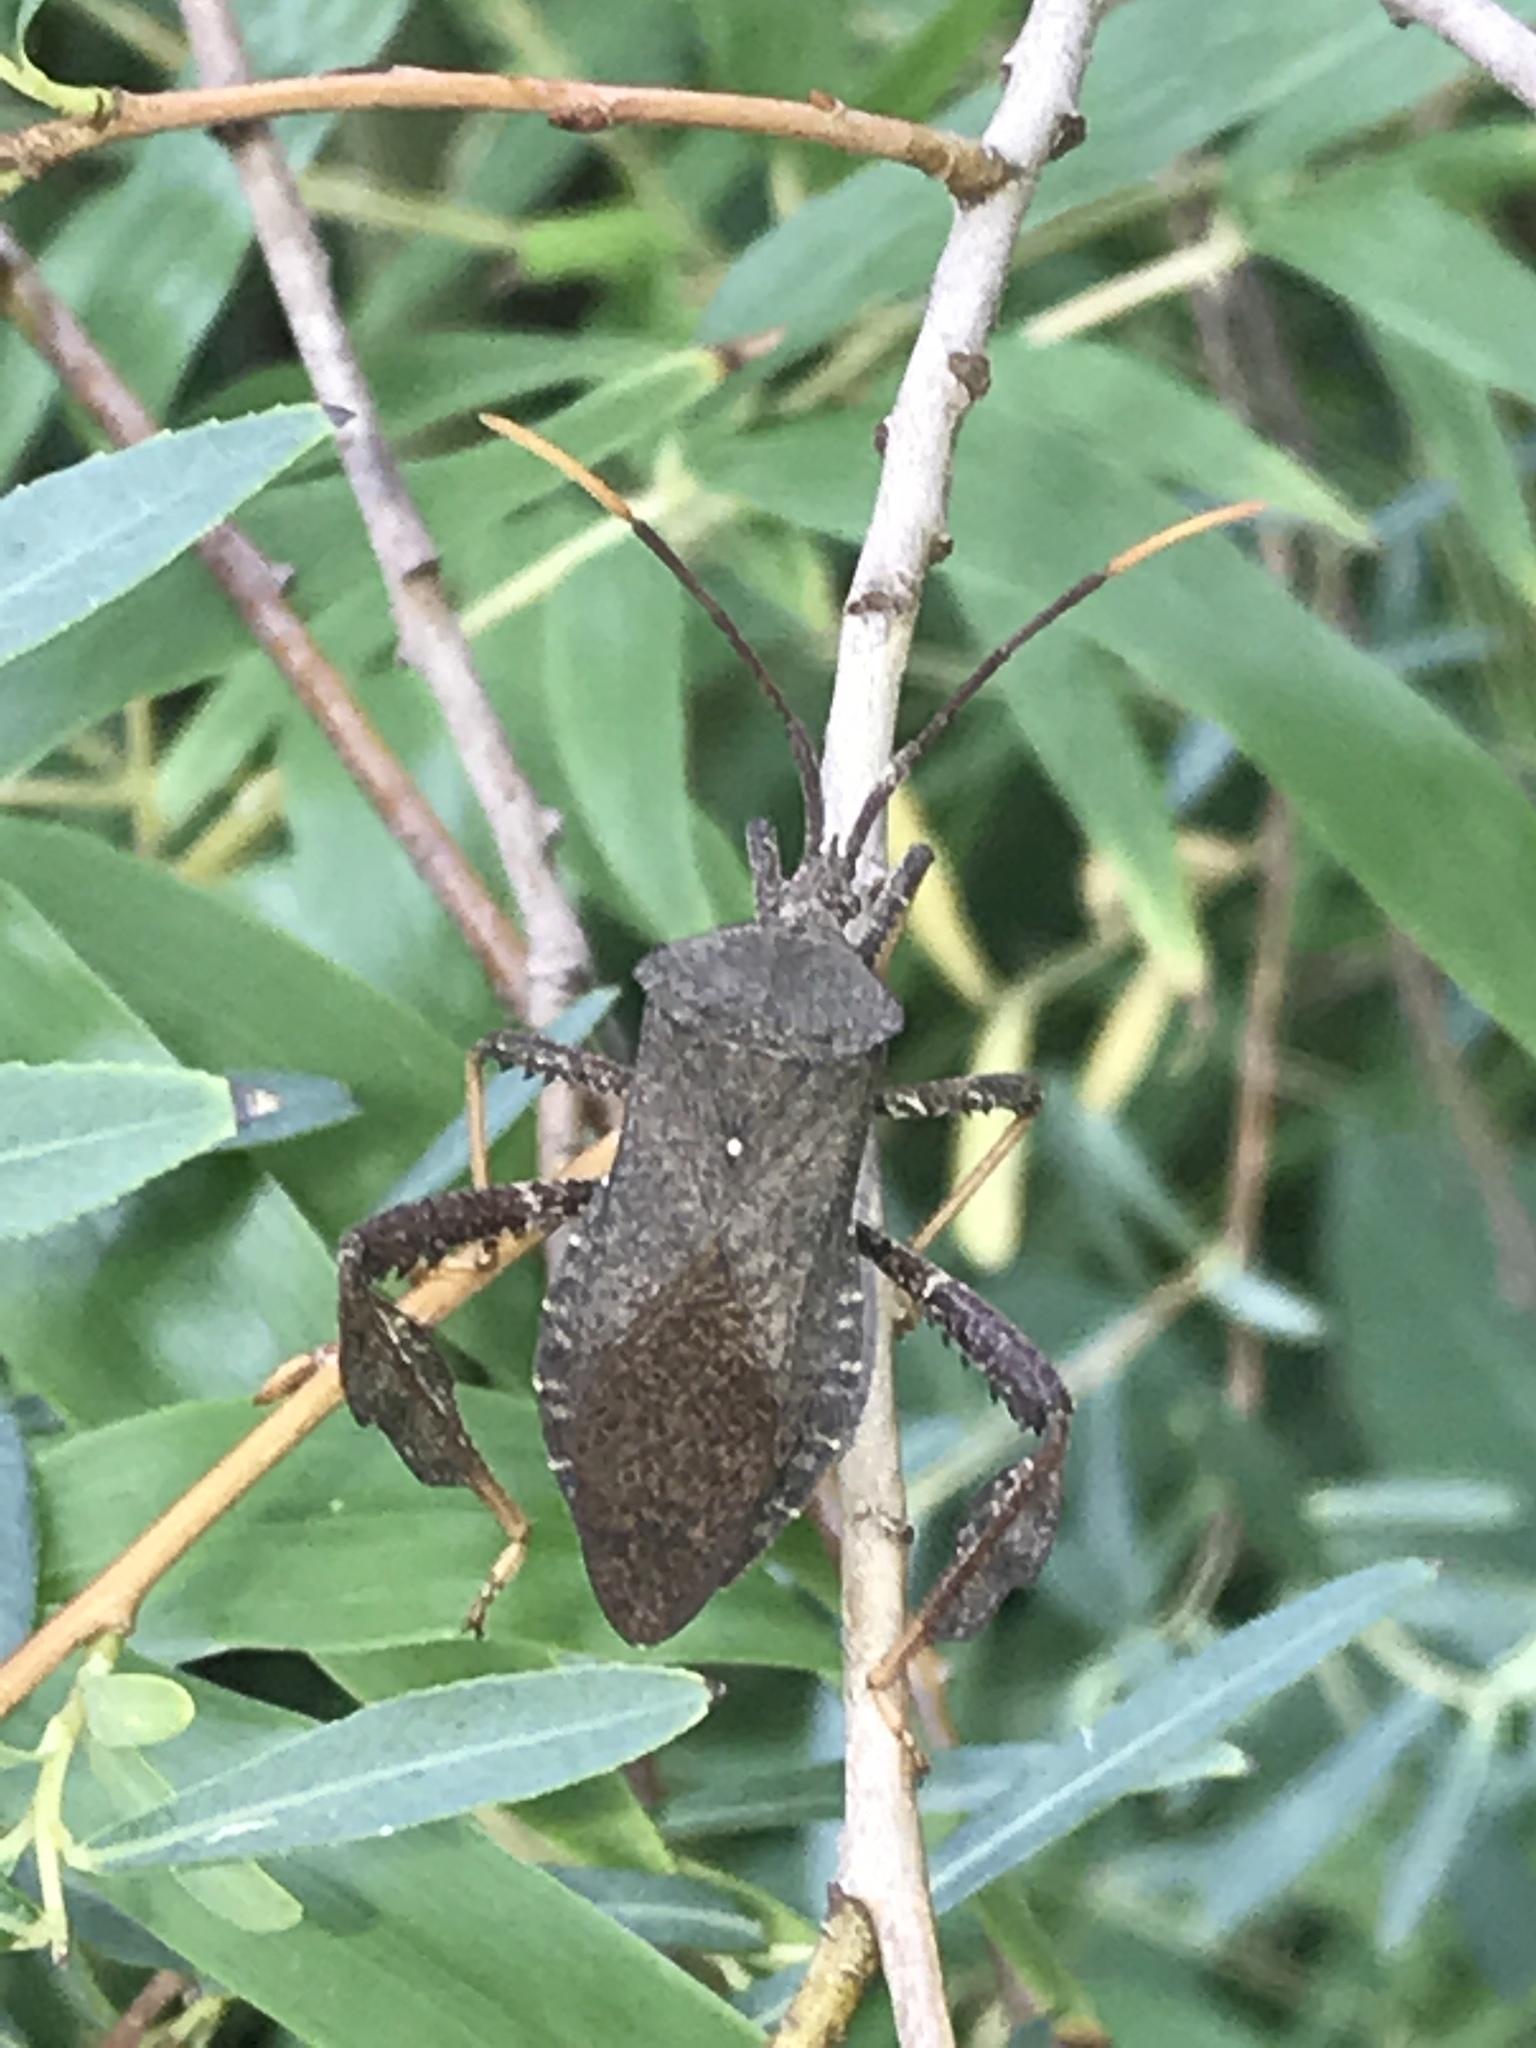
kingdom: Animalia
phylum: Arthropoda
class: Insecta
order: Hemiptera
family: Coreidae
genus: Acanthocephala
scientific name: Acanthocephala terminalis
